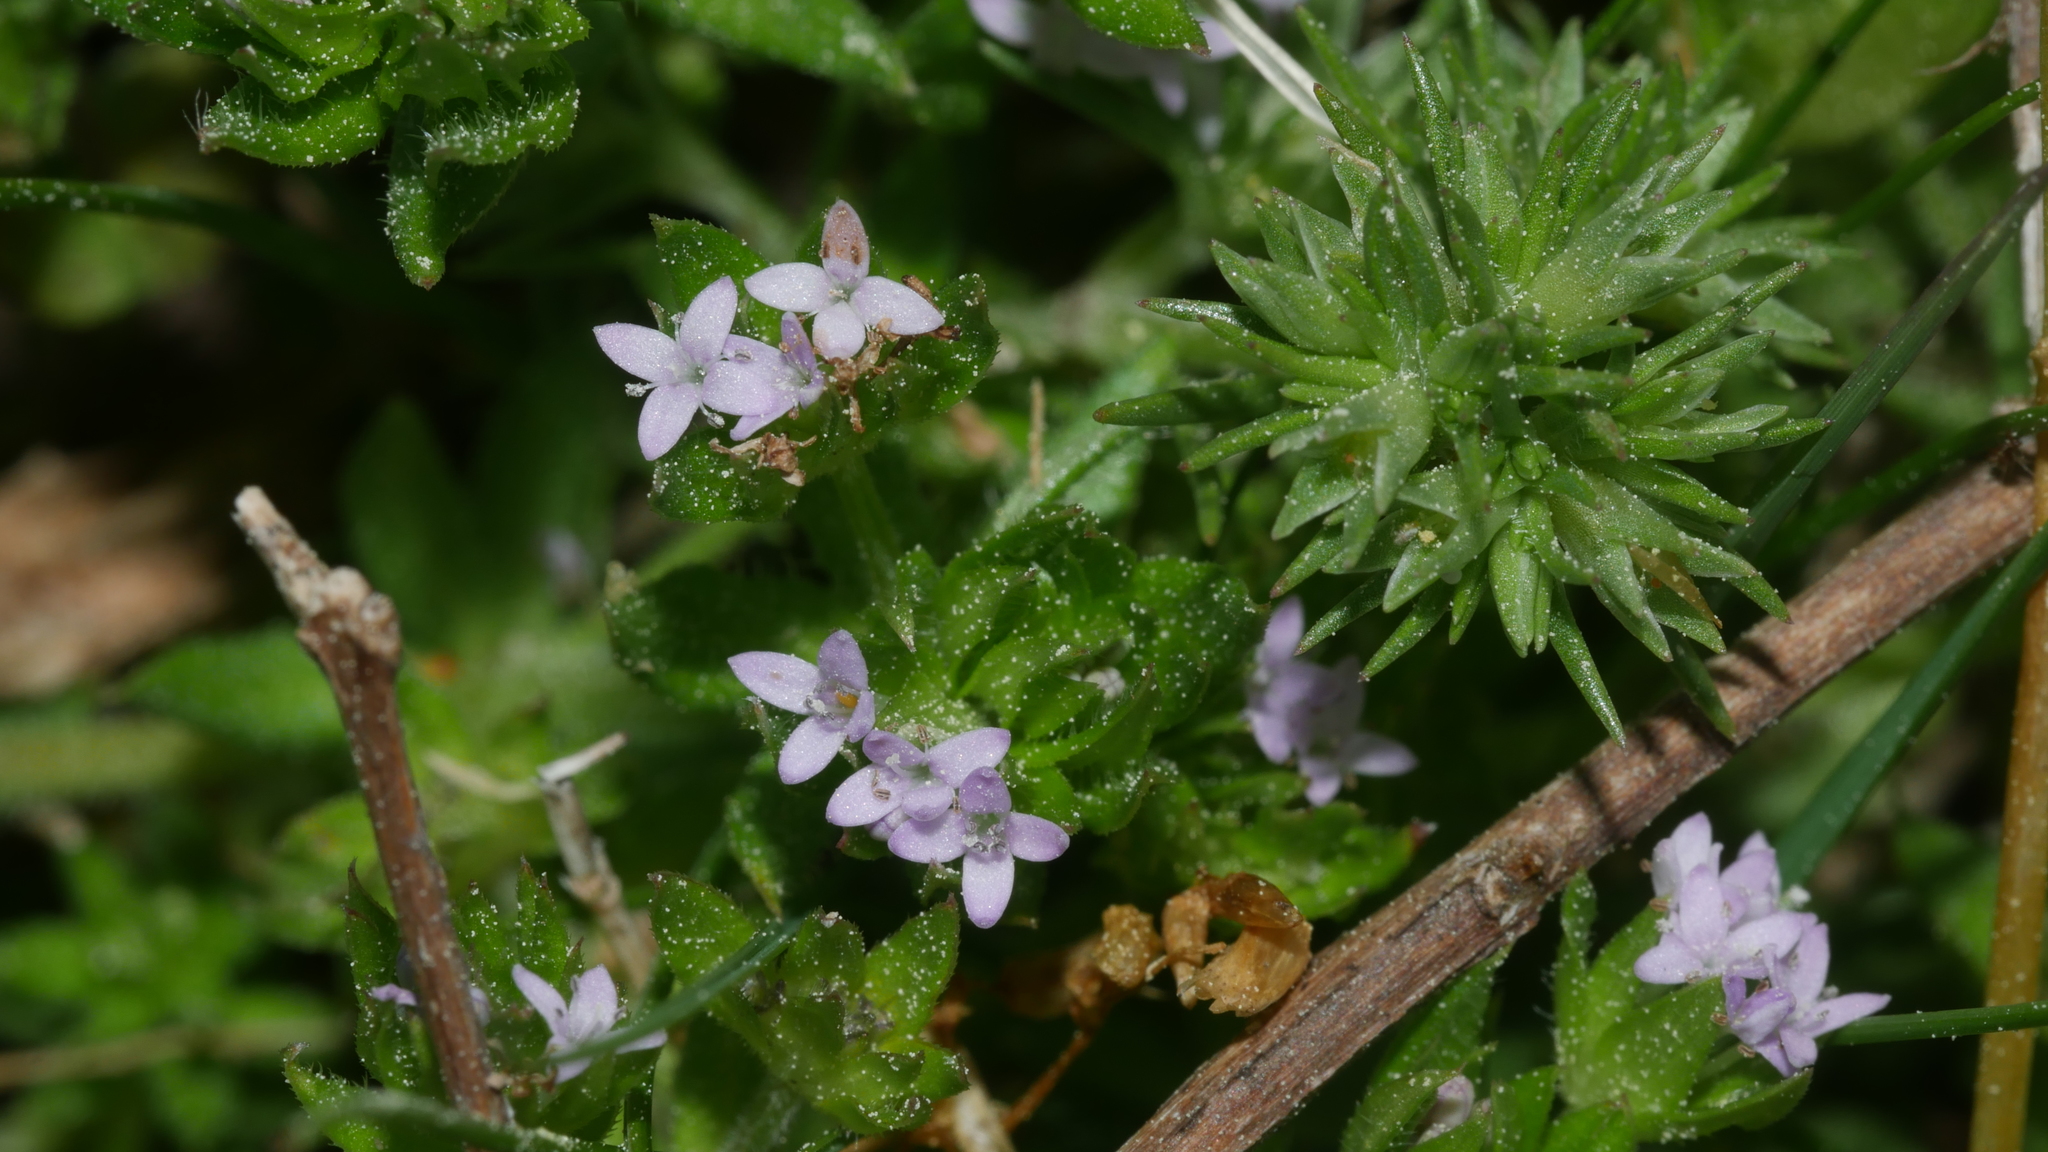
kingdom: Plantae
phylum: Tracheophyta
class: Magnoliopsida
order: Gentianales
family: Rubiaceae
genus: Sherardia
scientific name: Sherardia arvensis
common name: Field madder
